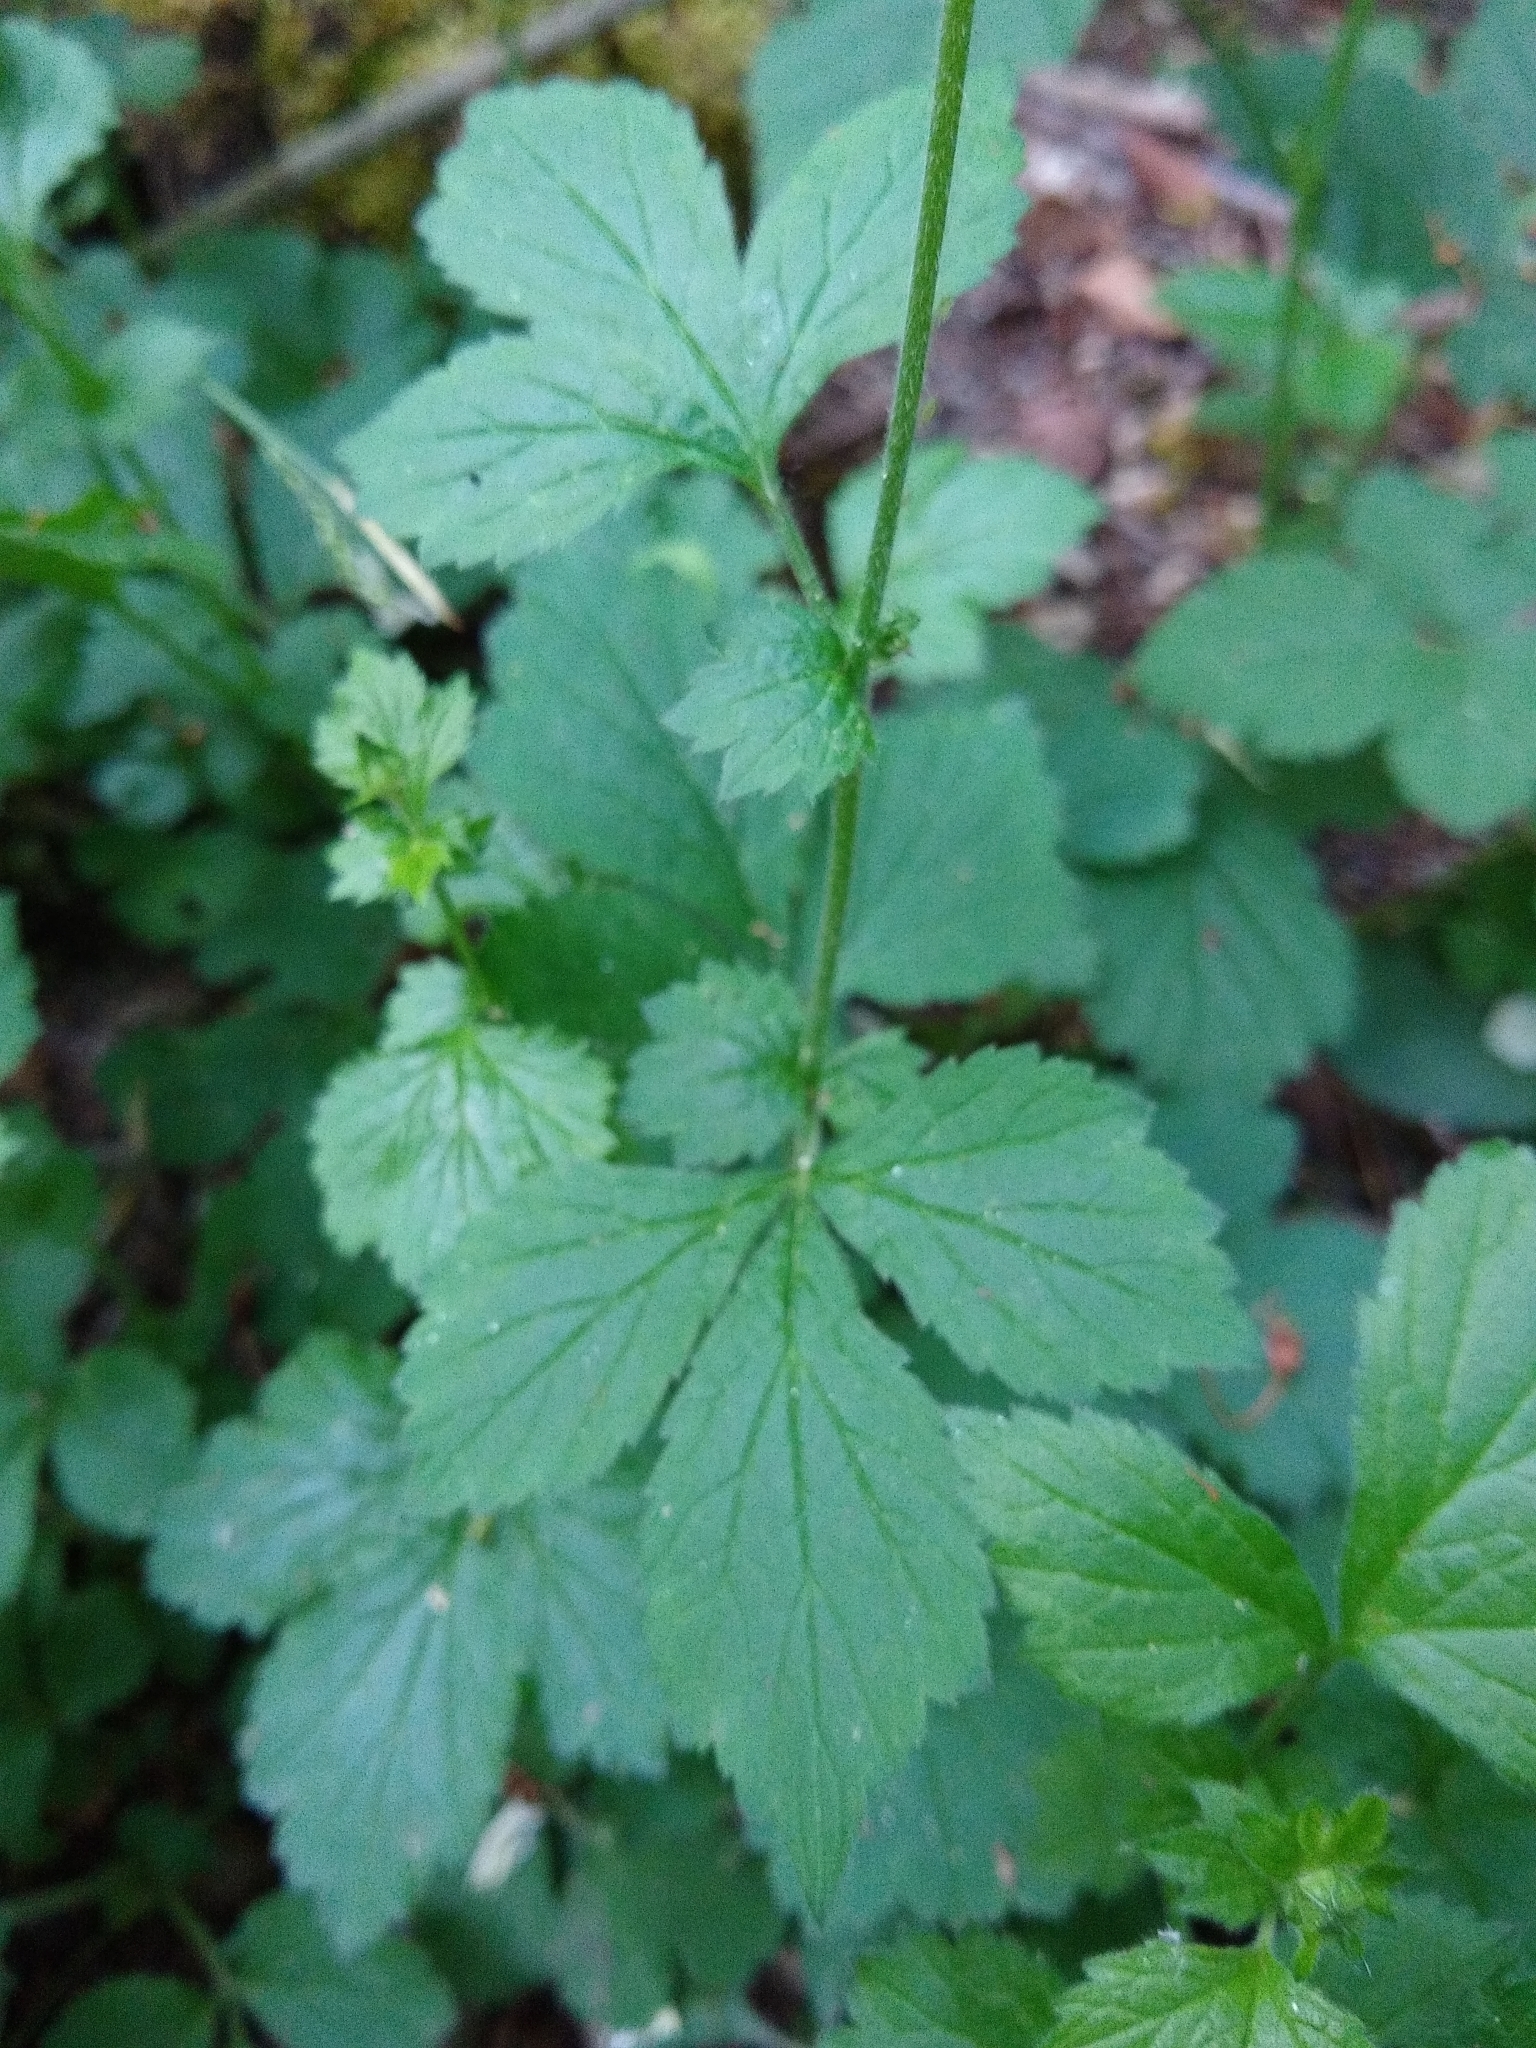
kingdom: Plantae
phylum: Tracheophyta
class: Magnoliopsida
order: Rosales
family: Rosaceae
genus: Geum
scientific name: Geum urbanum
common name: Wood avens
